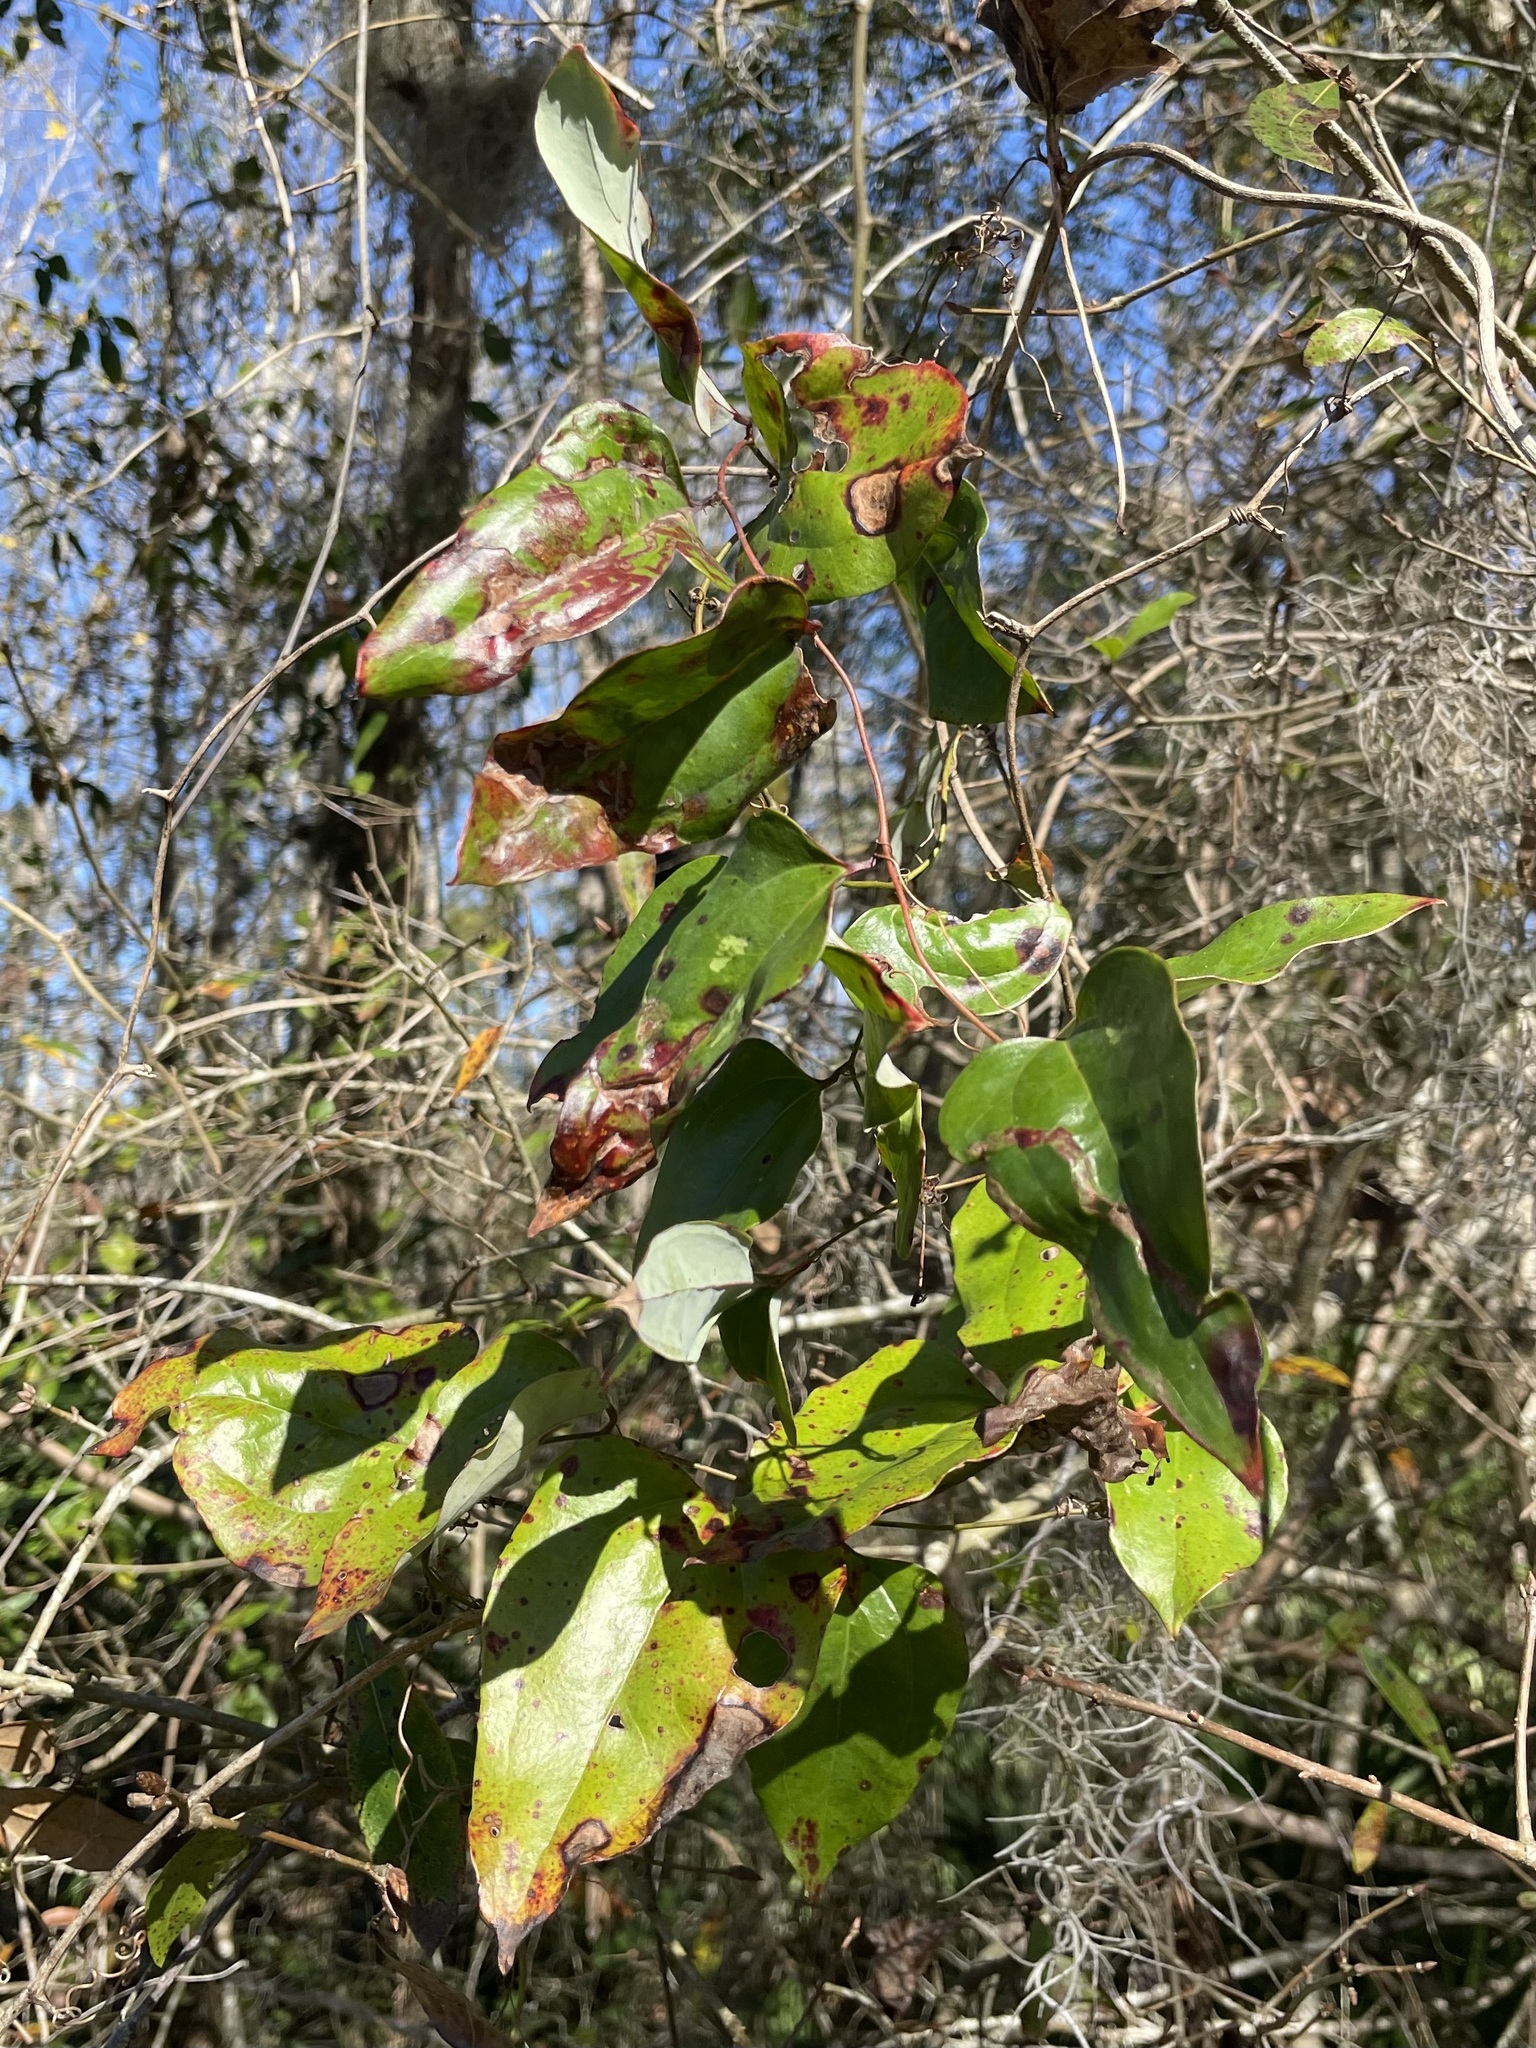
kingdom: Plantae
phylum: Tracheophyta
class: Liliopsida
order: Liliales
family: Smilacaceae
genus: Smilax
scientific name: Smilax glauca
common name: Cat greenbrier
